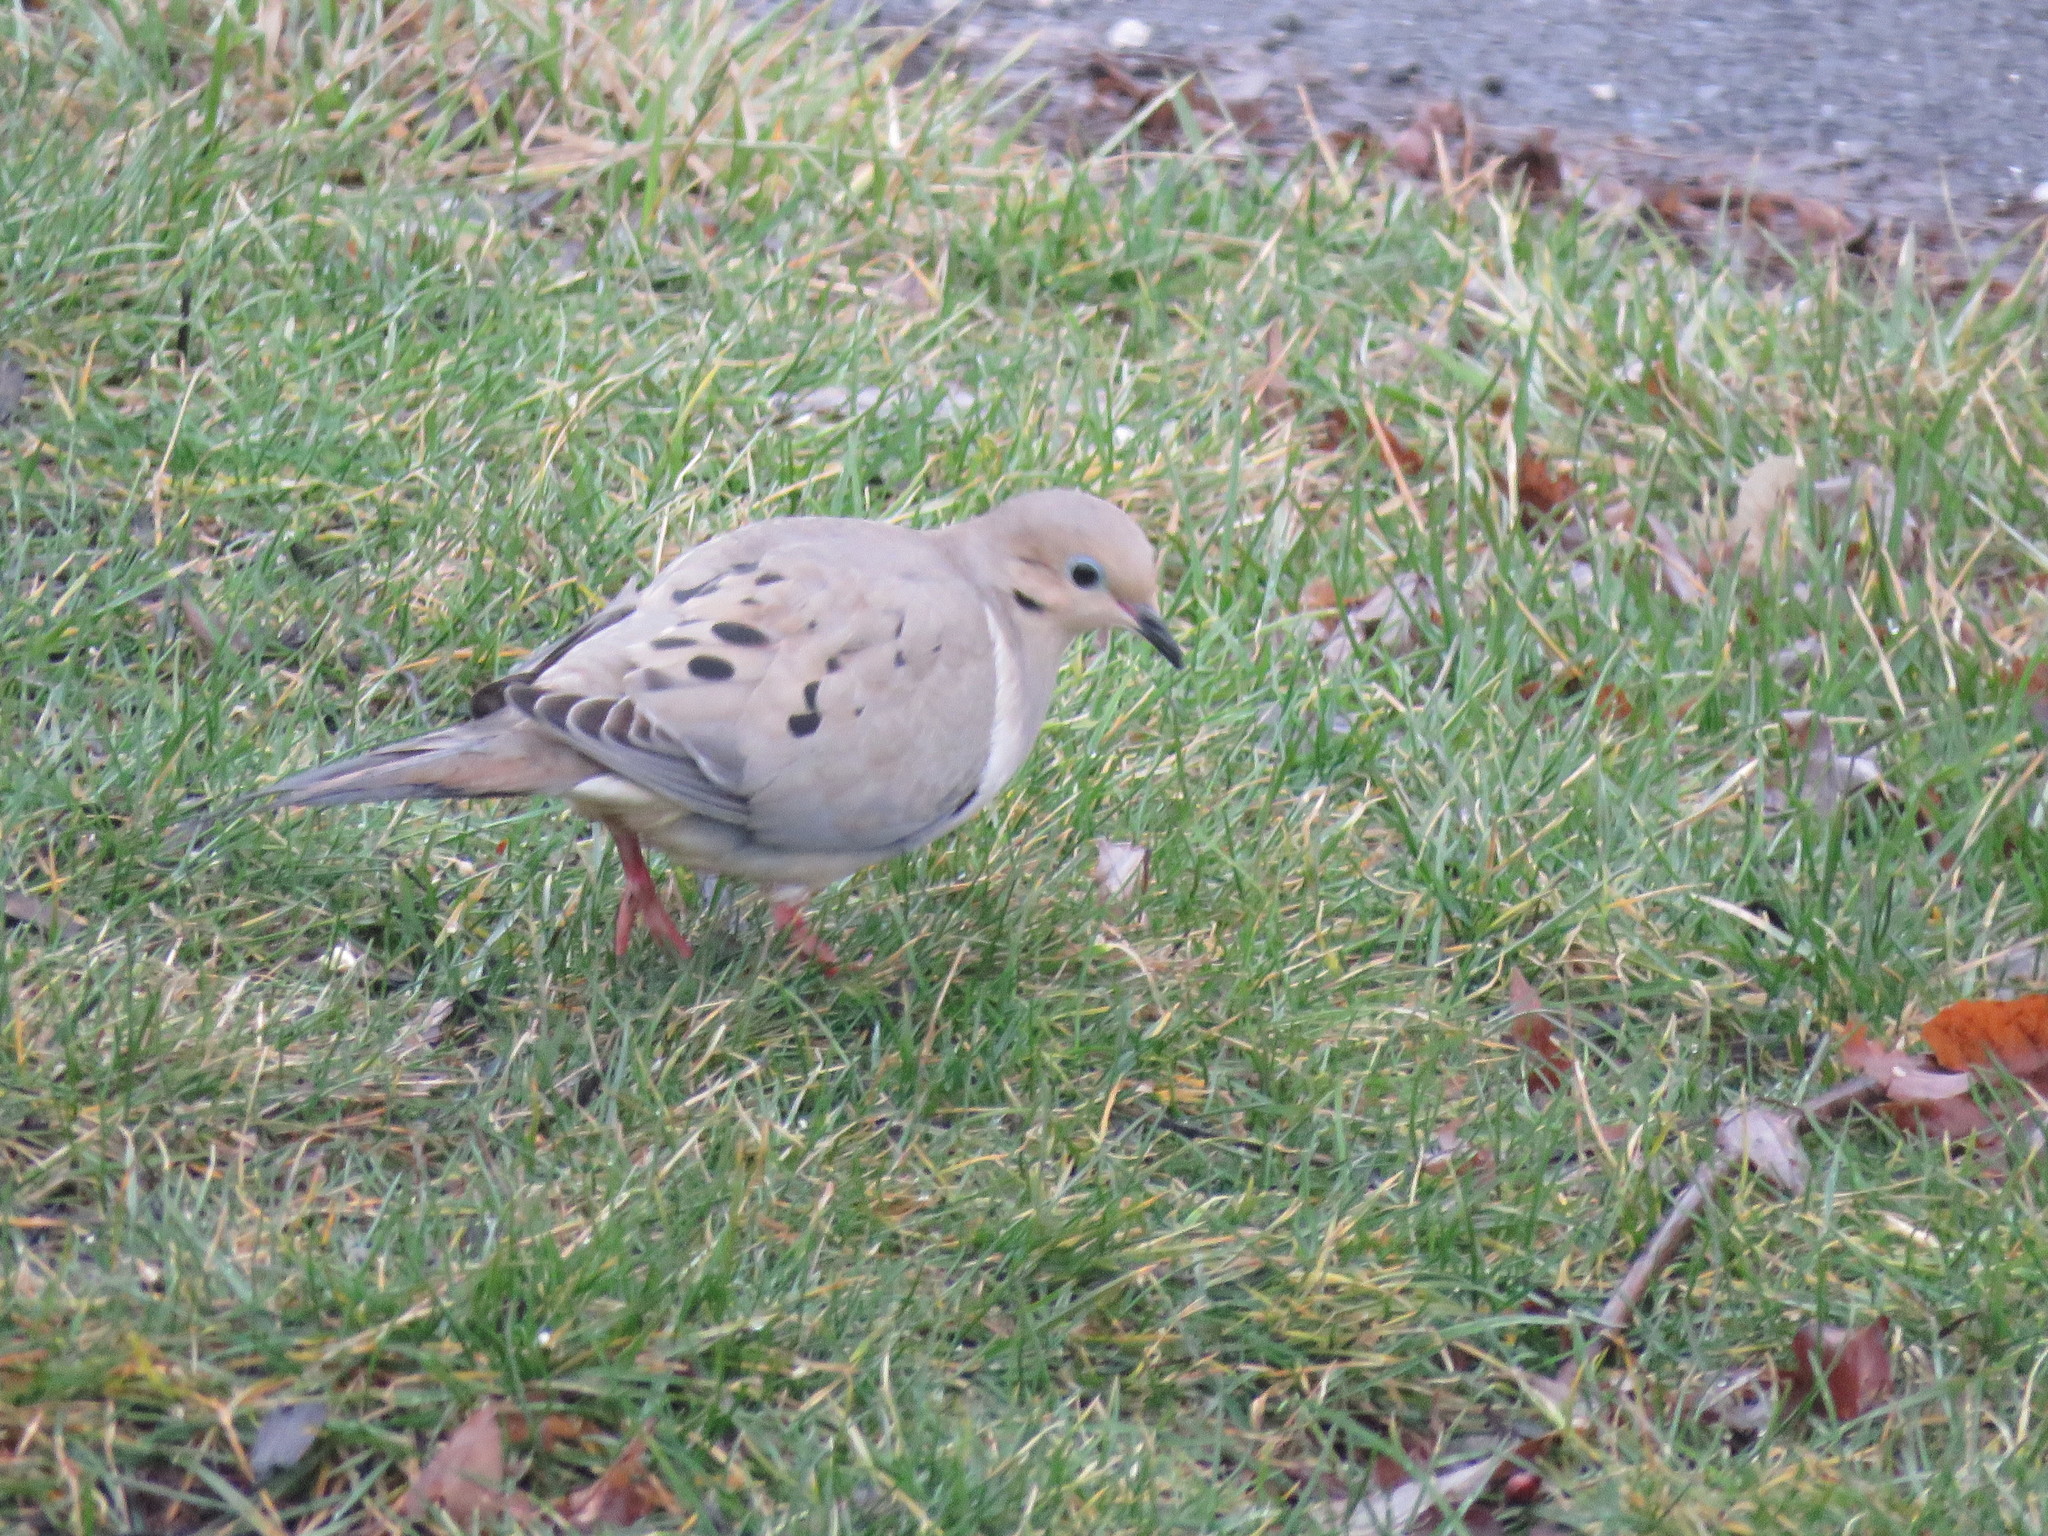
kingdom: Animalia
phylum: Chordata
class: Aves
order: Columbiformes
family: Columbidae
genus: Zenaida
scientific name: Zenaida macroura
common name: Mourning dove
